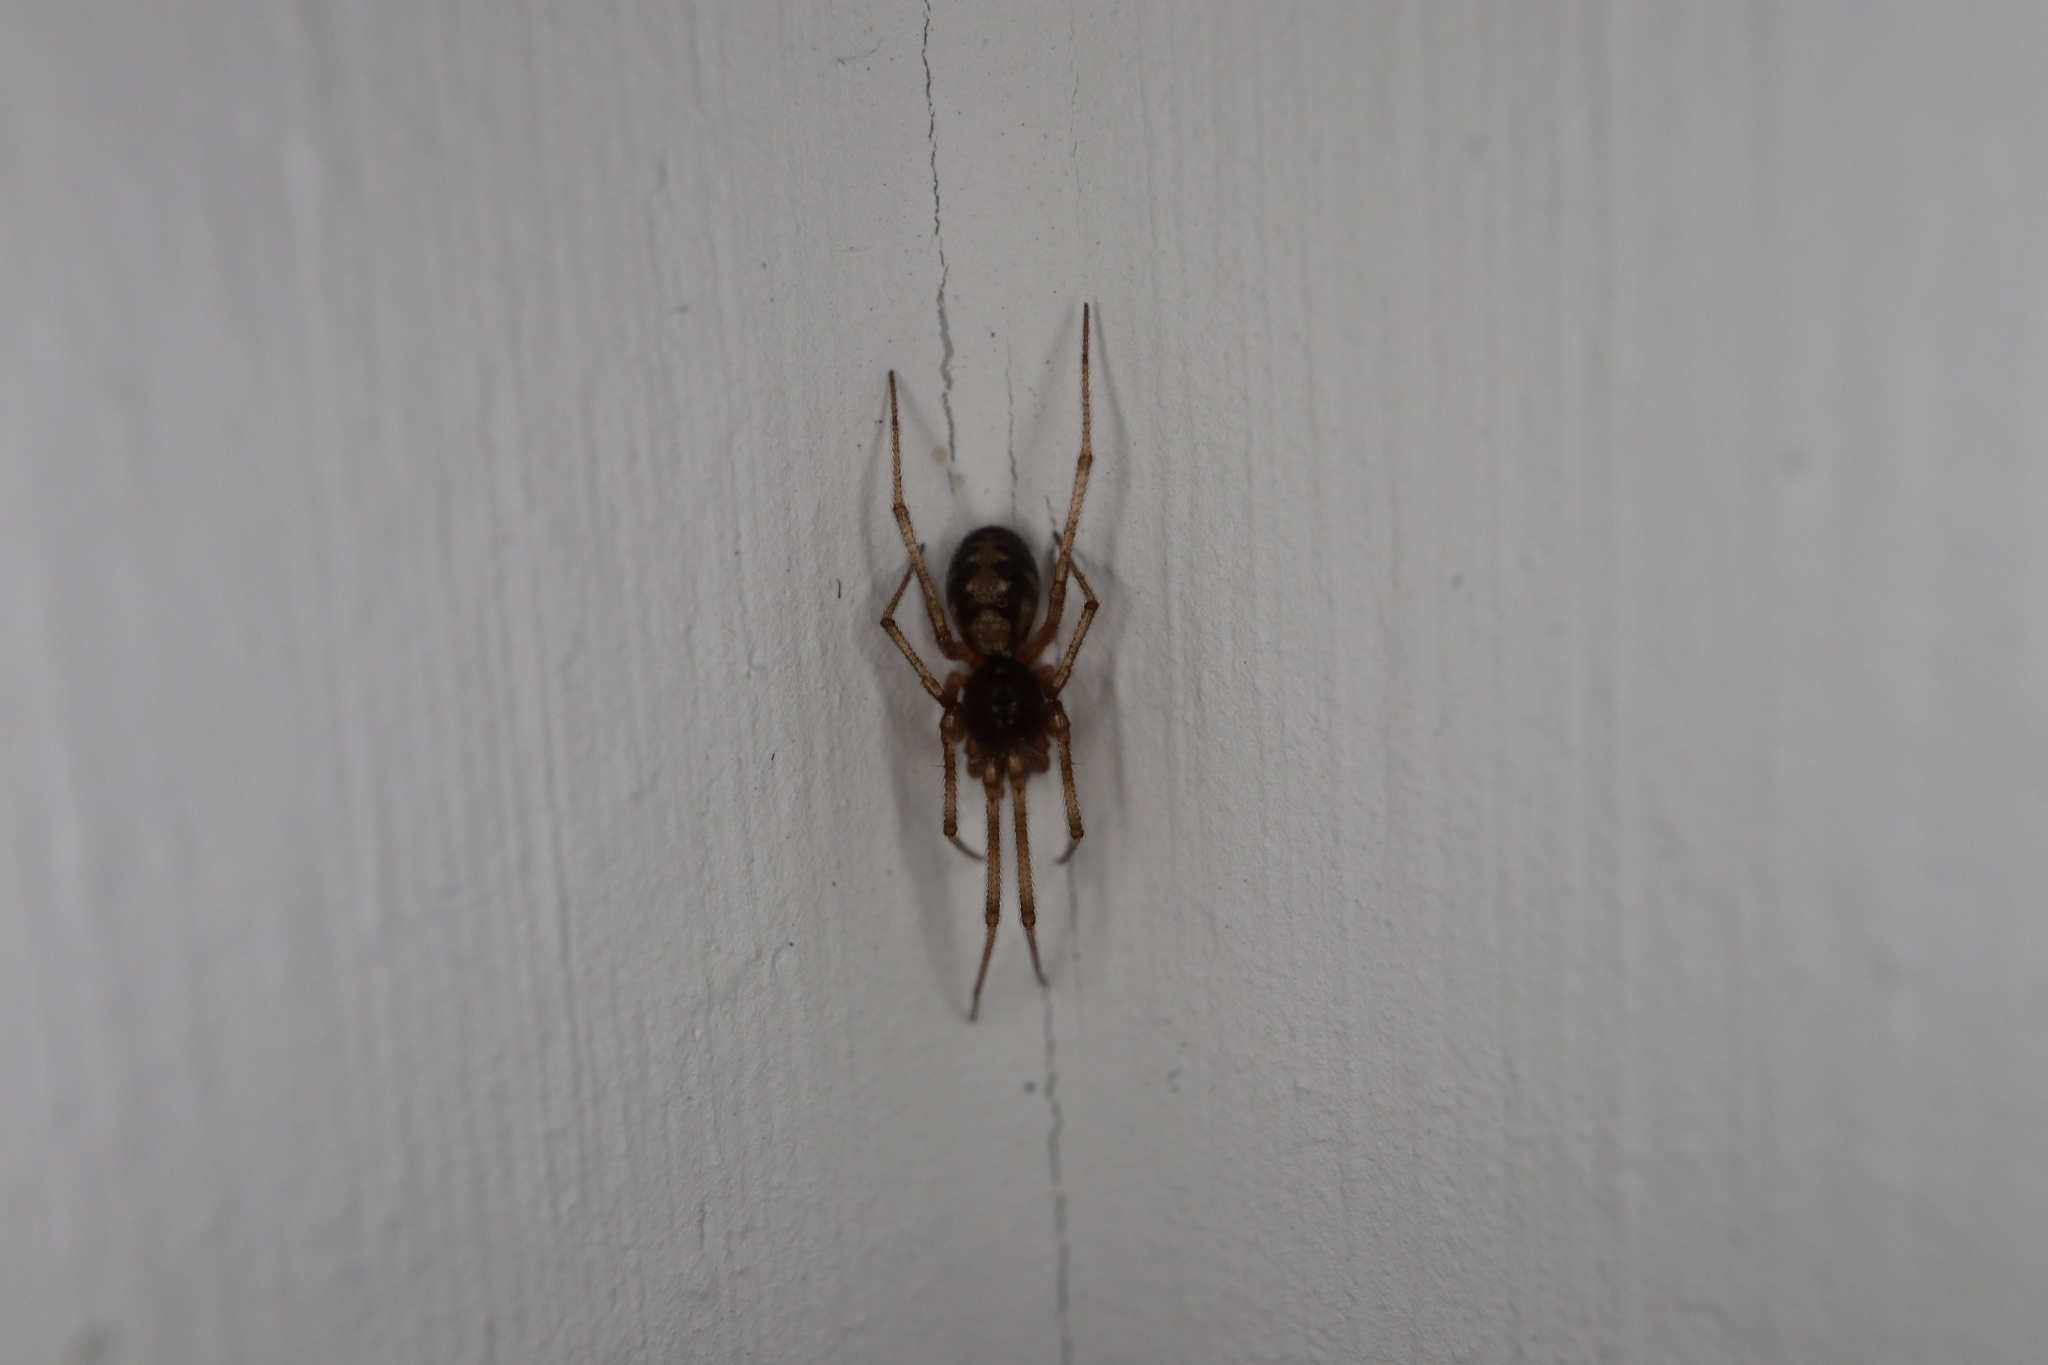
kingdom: Animalia
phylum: Arthropoda
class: Arachnida
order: Araneae
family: Theridiidae
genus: Steatoda
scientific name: Steatoda triangulosa
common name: Triangulate bud spider
